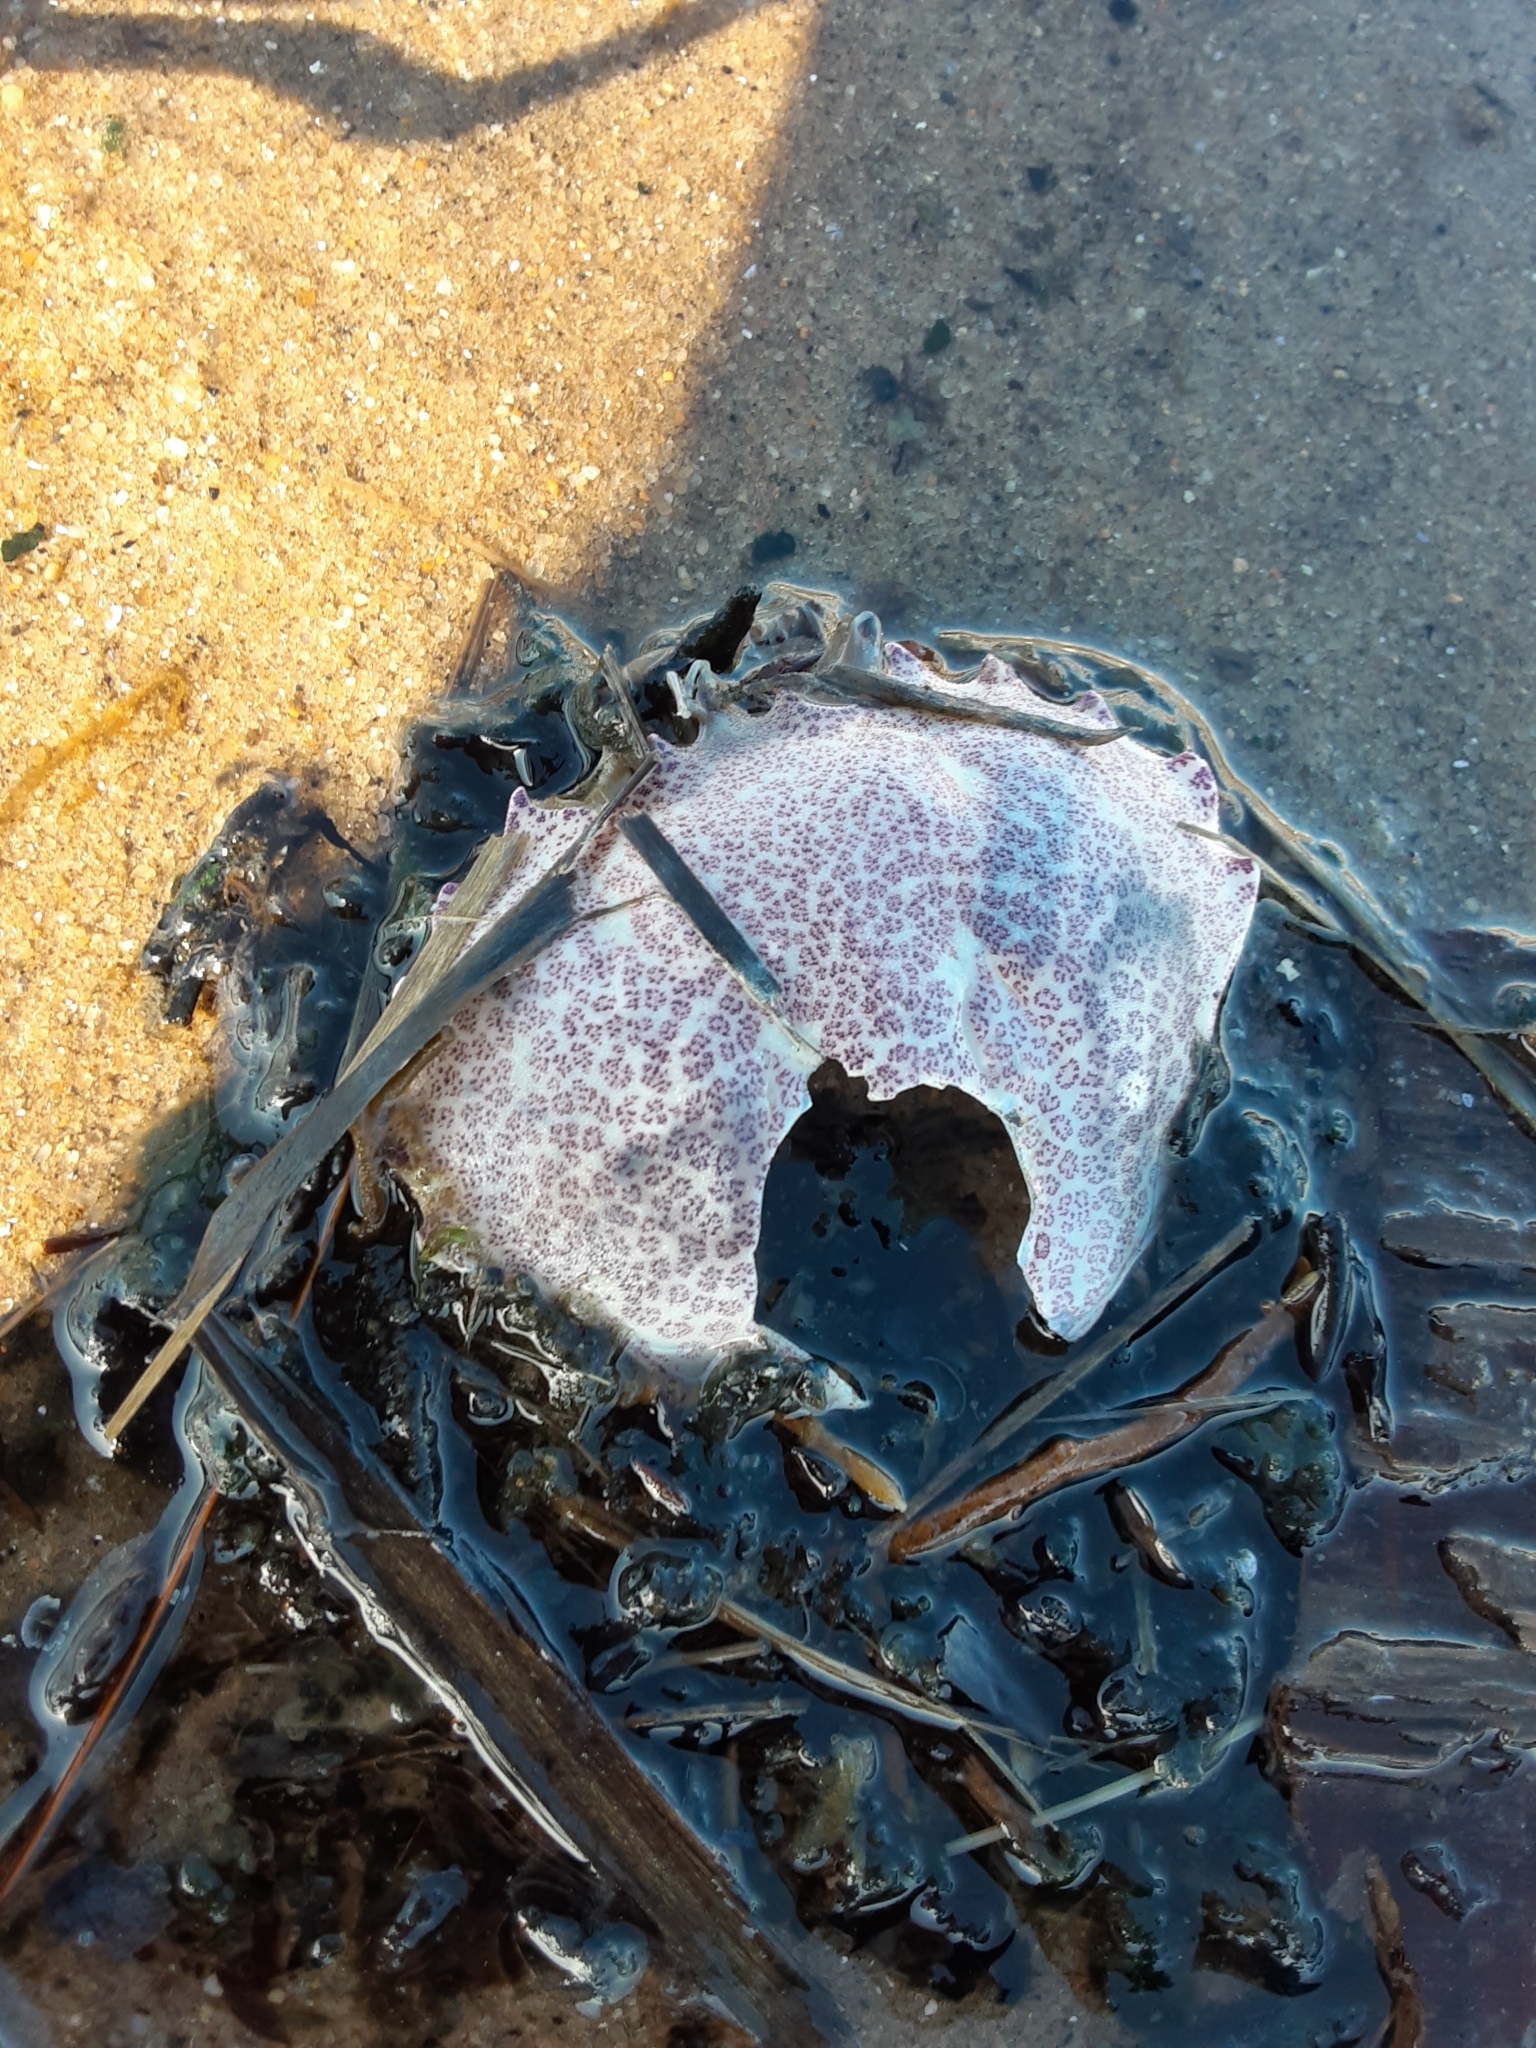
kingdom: Animalia
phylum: Arthropoda
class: Malacostraca
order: Decapoda
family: Ovalipidae
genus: Ovalipes
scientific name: Ovalipes ocellatus
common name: Lady crab
